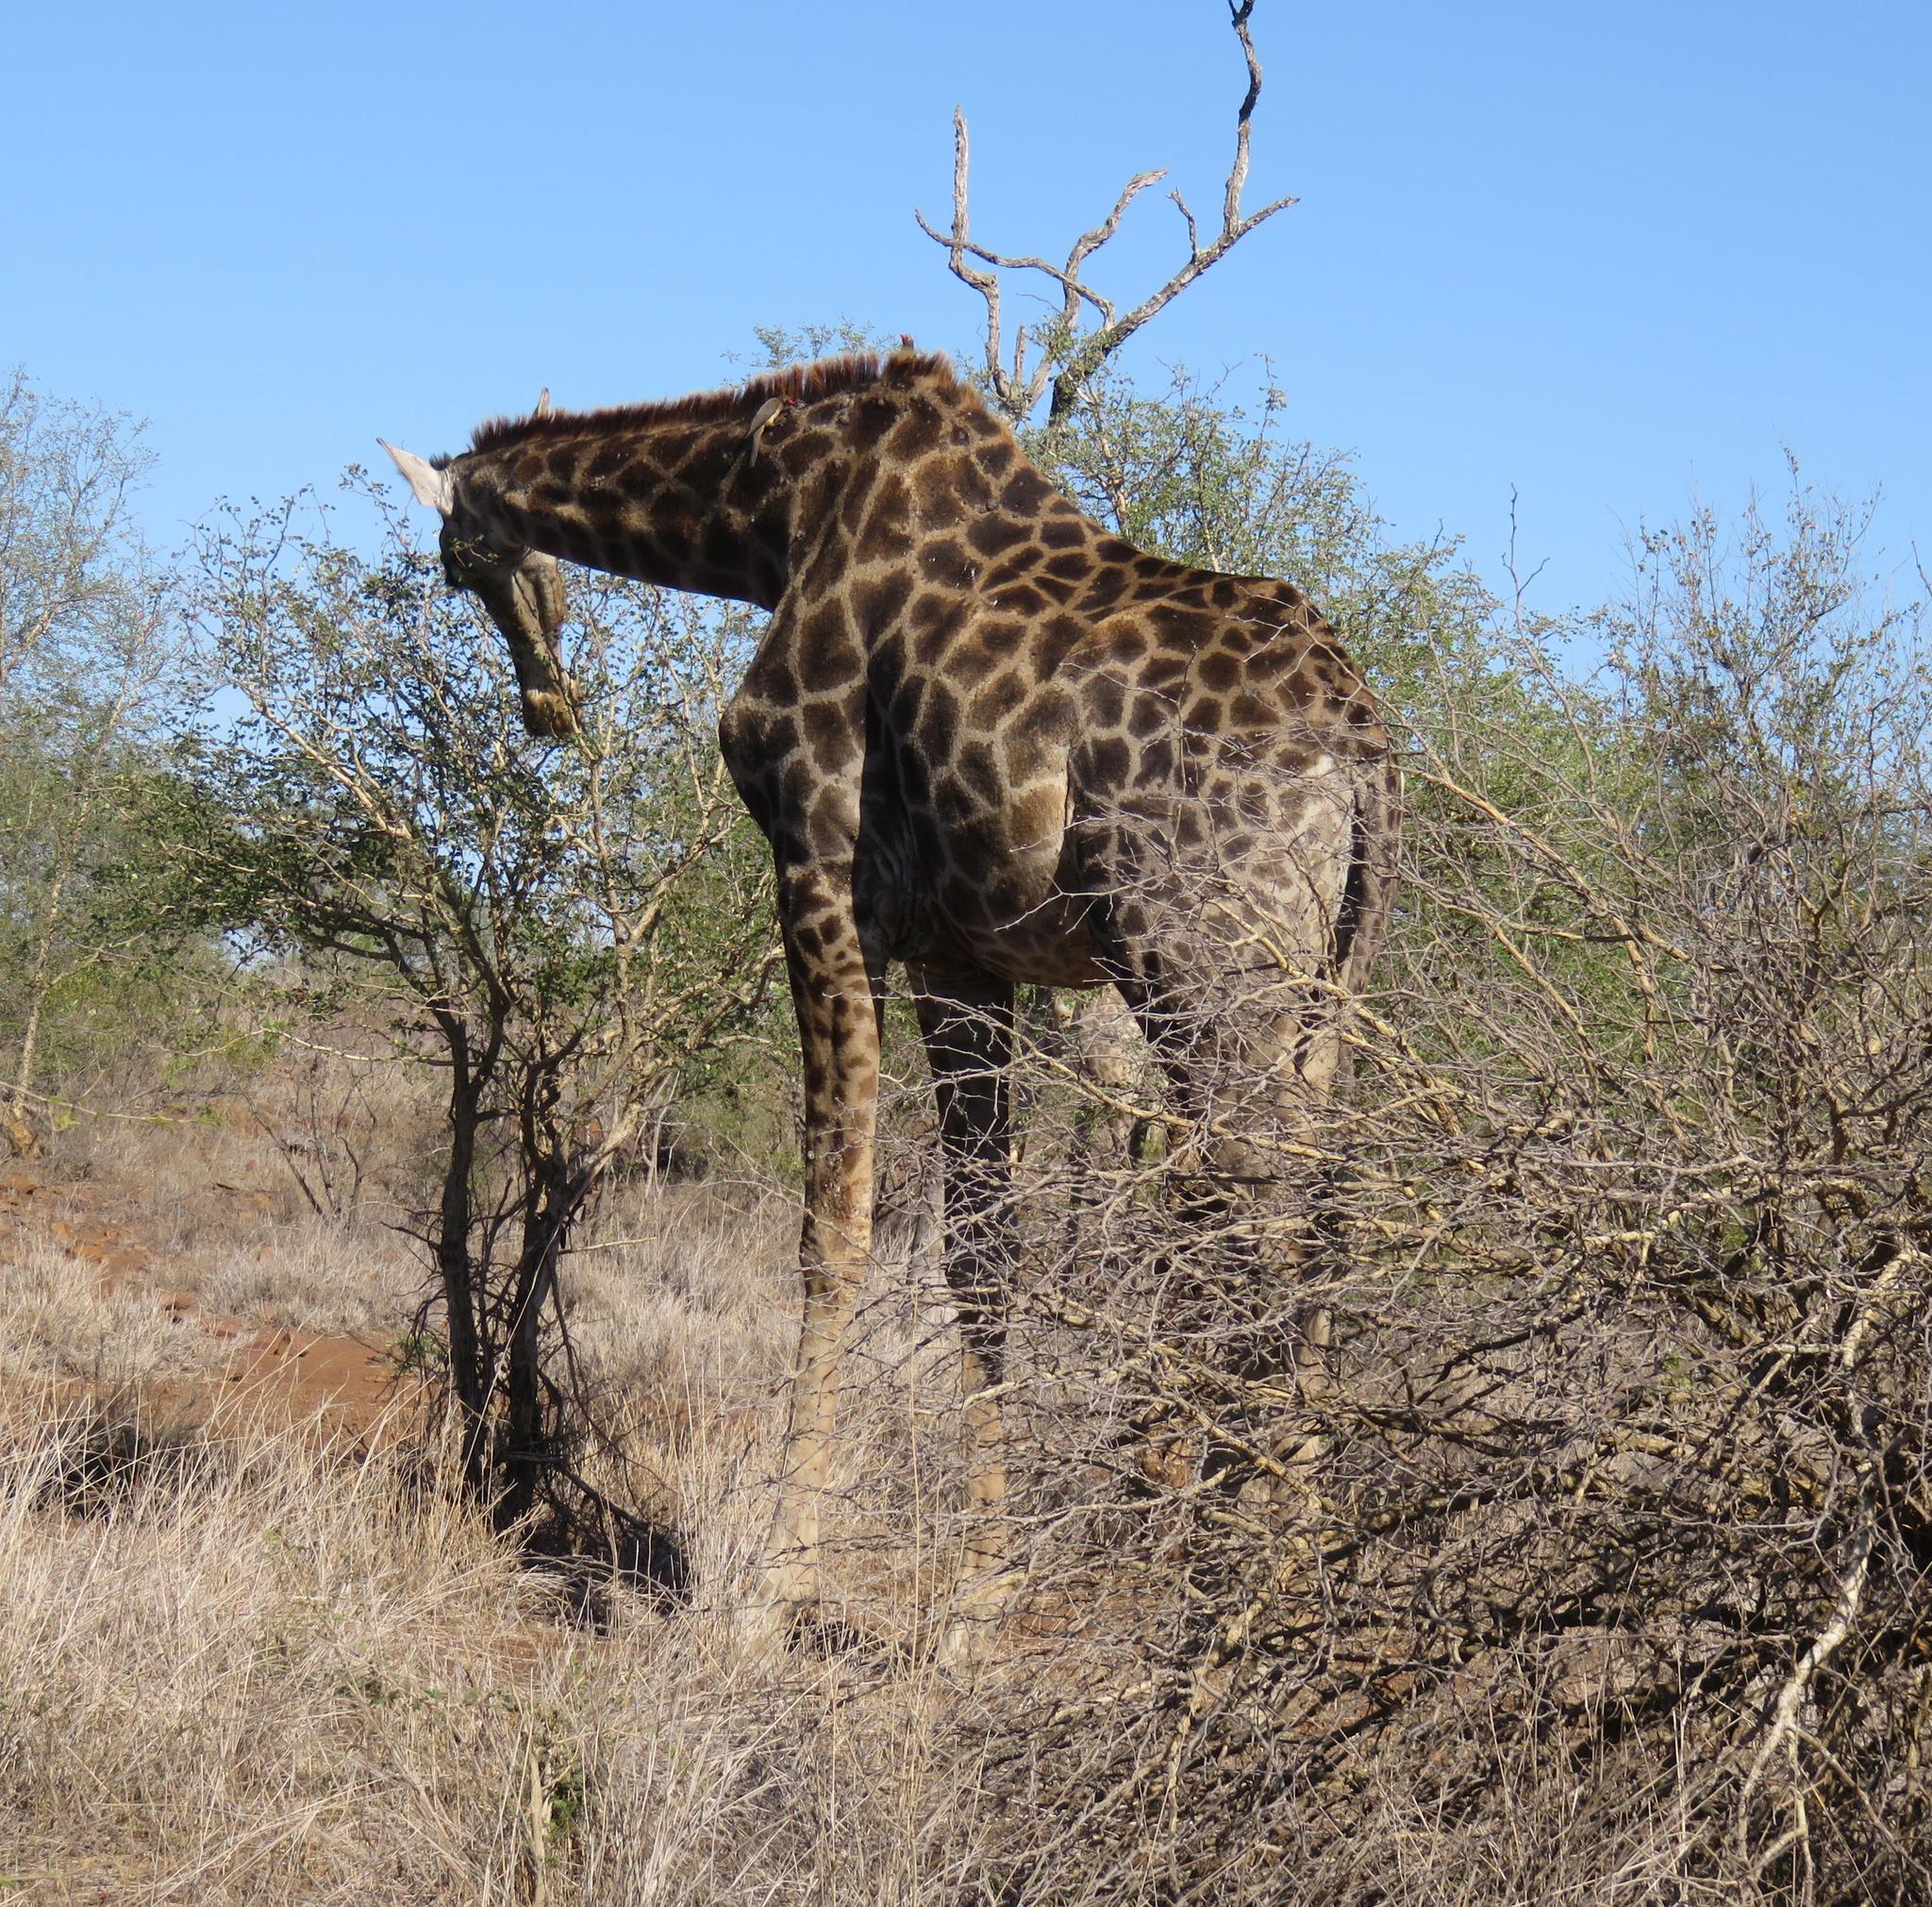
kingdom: Animalia
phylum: Chordata
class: Mammalia
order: Artiodactyla
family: Giraffidae
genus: Giraffa
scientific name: Giraffa giraffa
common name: Southern giraffe
